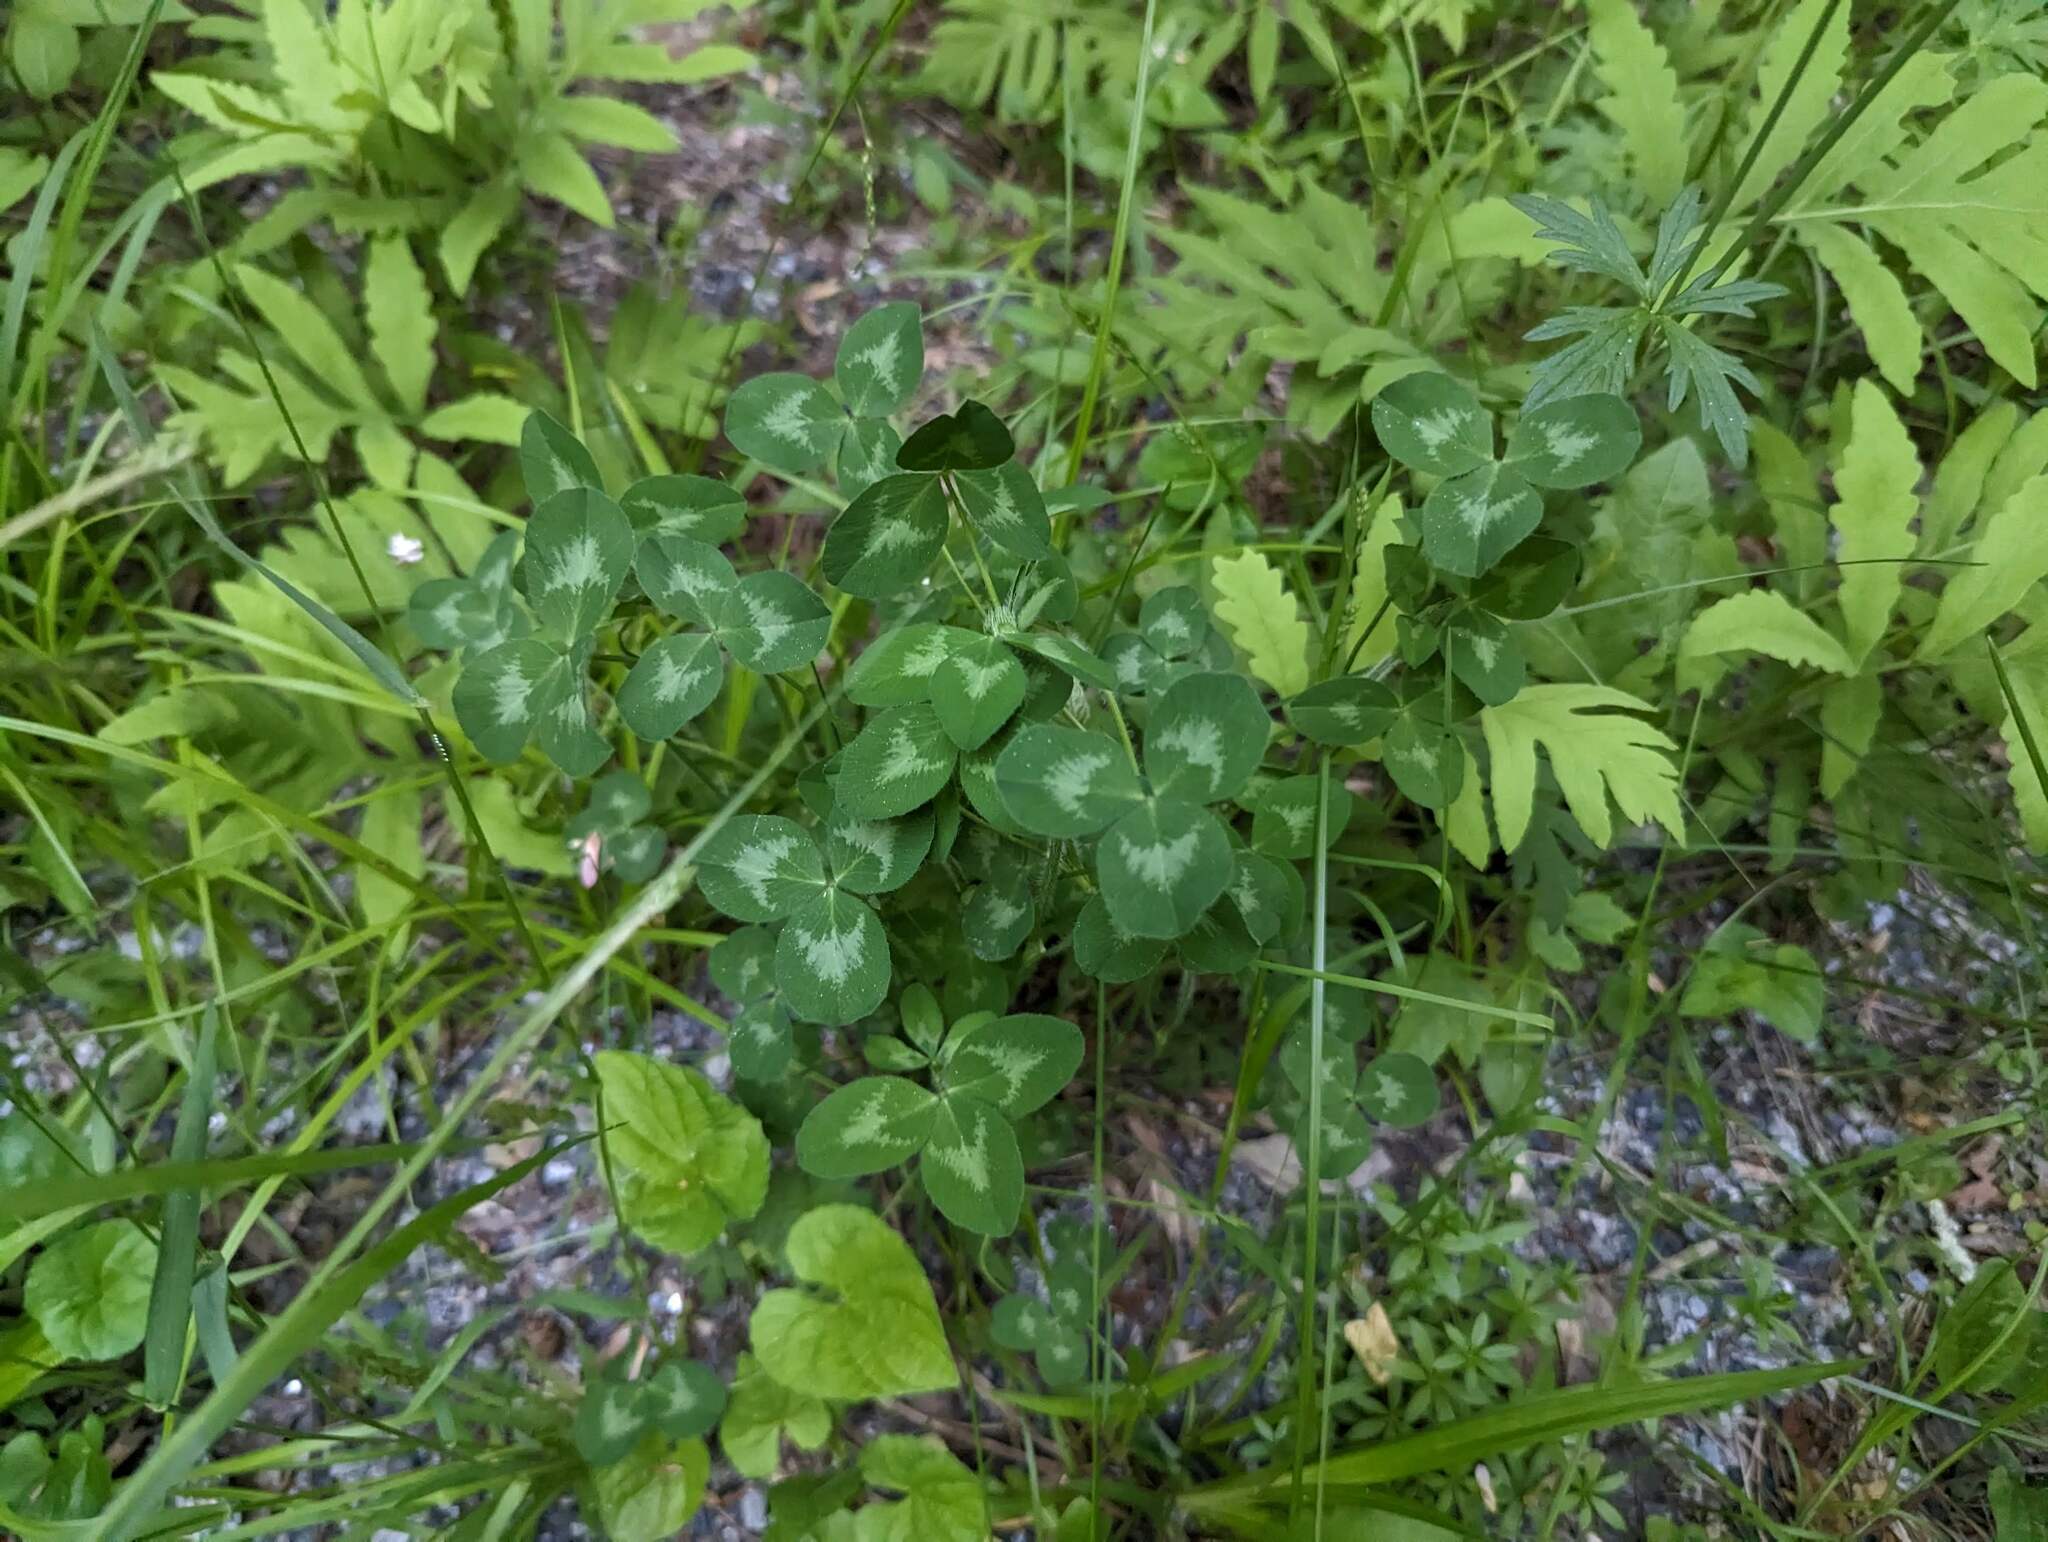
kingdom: Plantae
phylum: Tracheophyta
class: Magnoliopsida
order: Fabales
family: Fabaceae
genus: Trifolium
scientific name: Trifolium pratense
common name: Red clover
